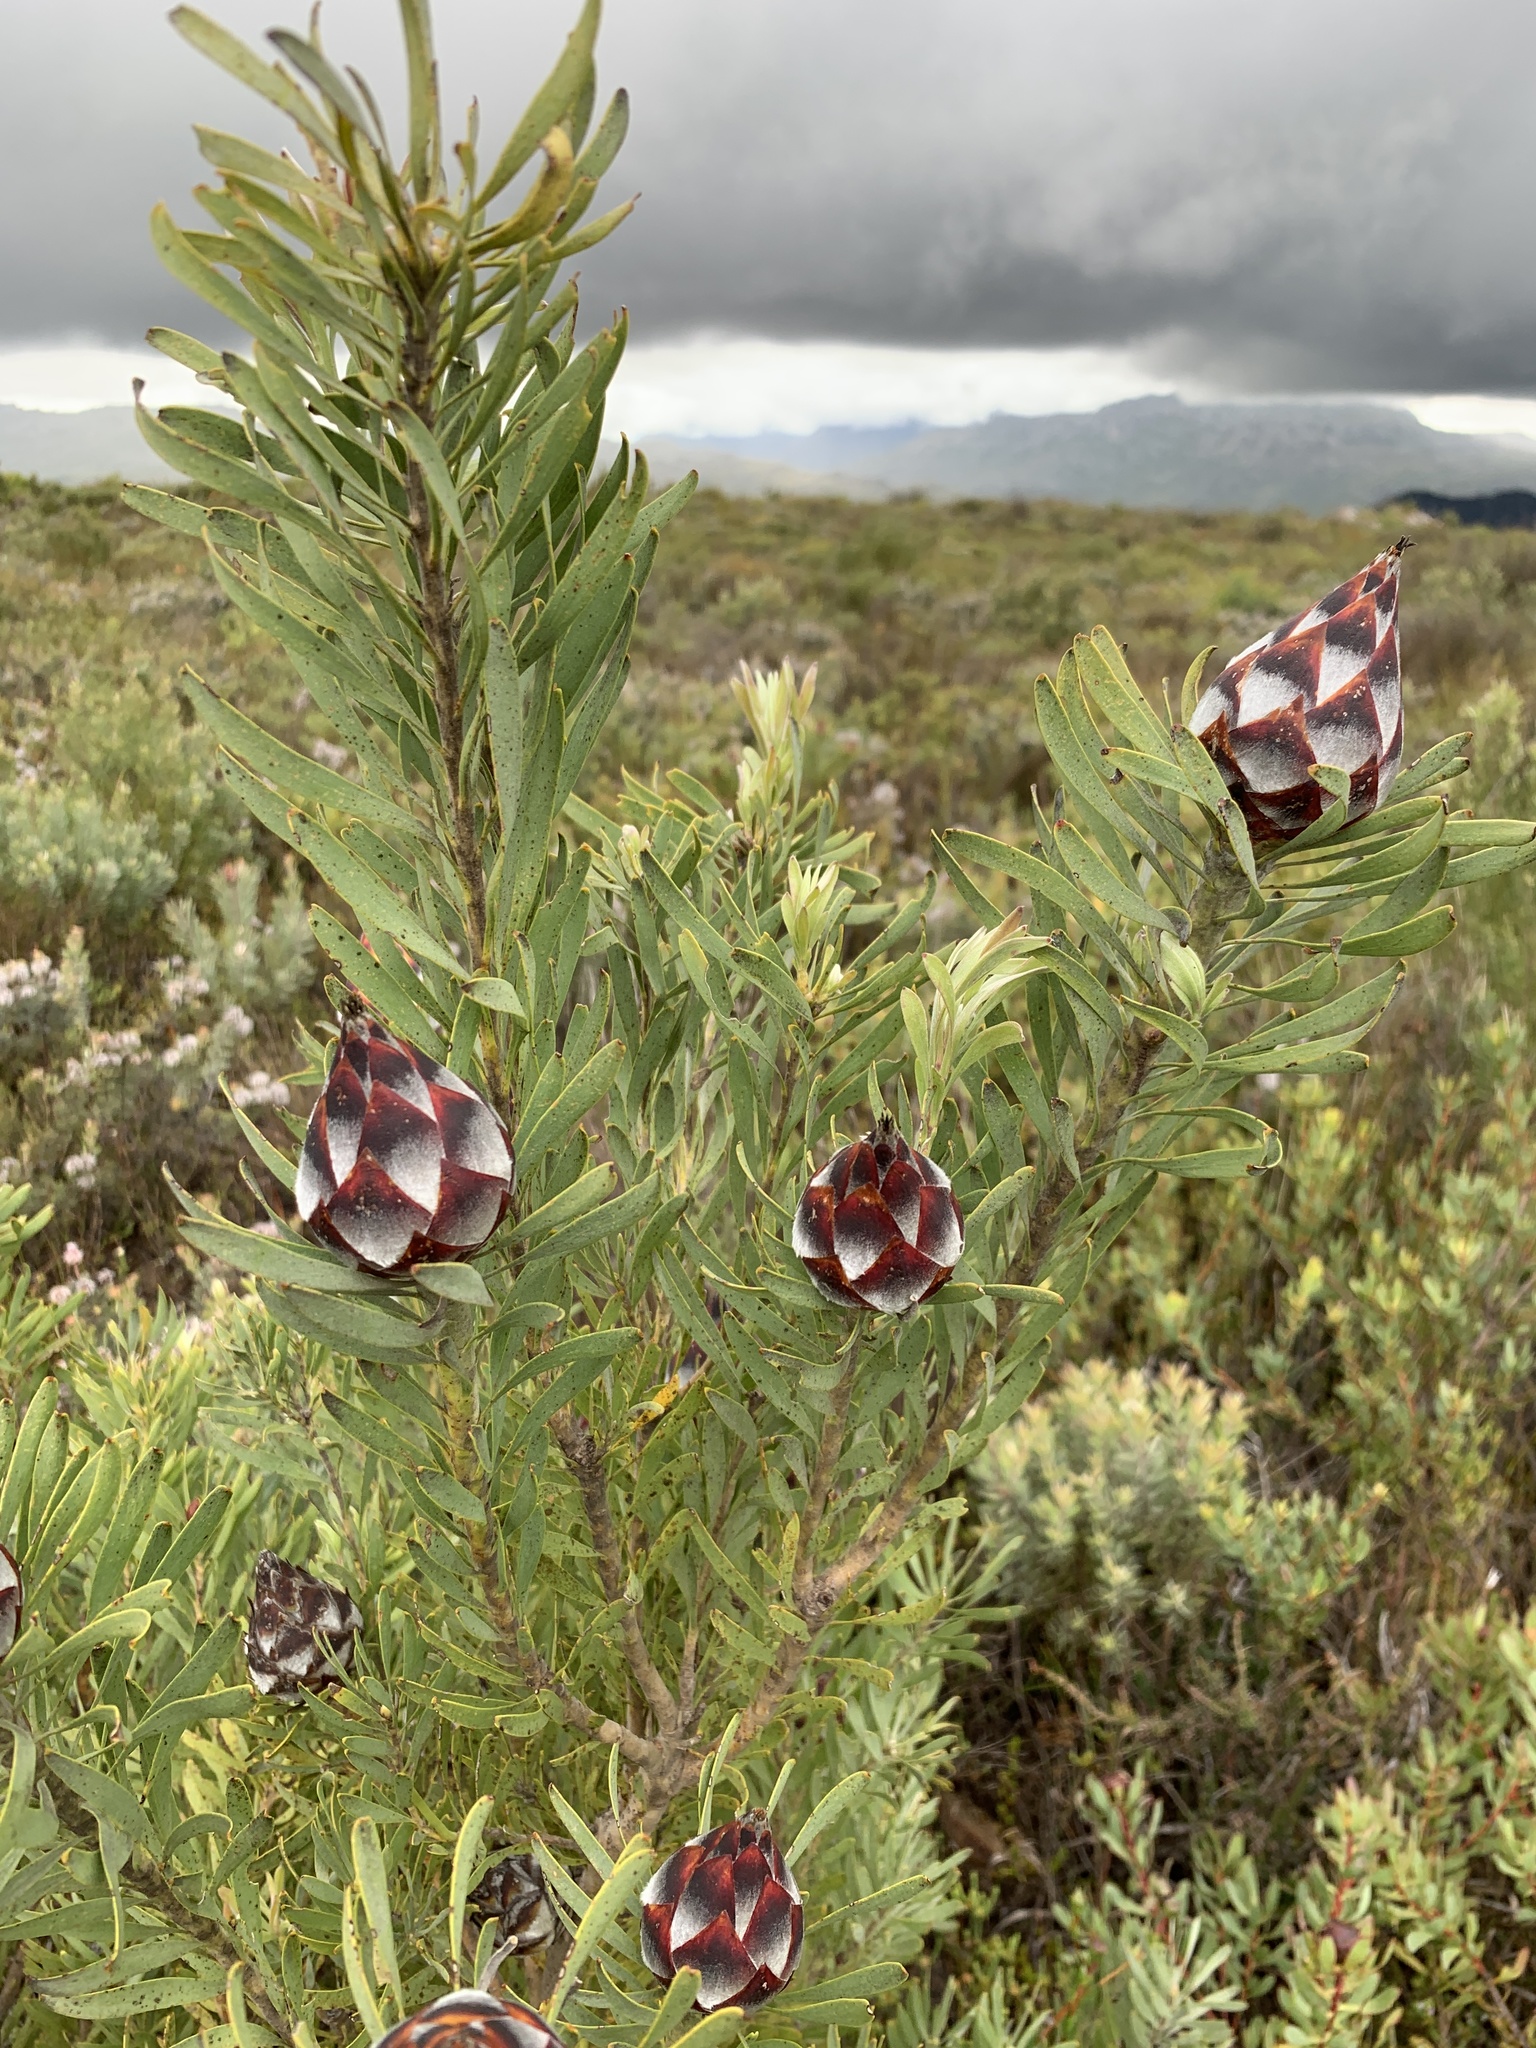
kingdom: Plantae
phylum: Tracheophyta
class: Magnoliopsida
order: Proteales
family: Proteaceae
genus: Leucadendron
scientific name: Leucadendron rubrum
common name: Spinning top
